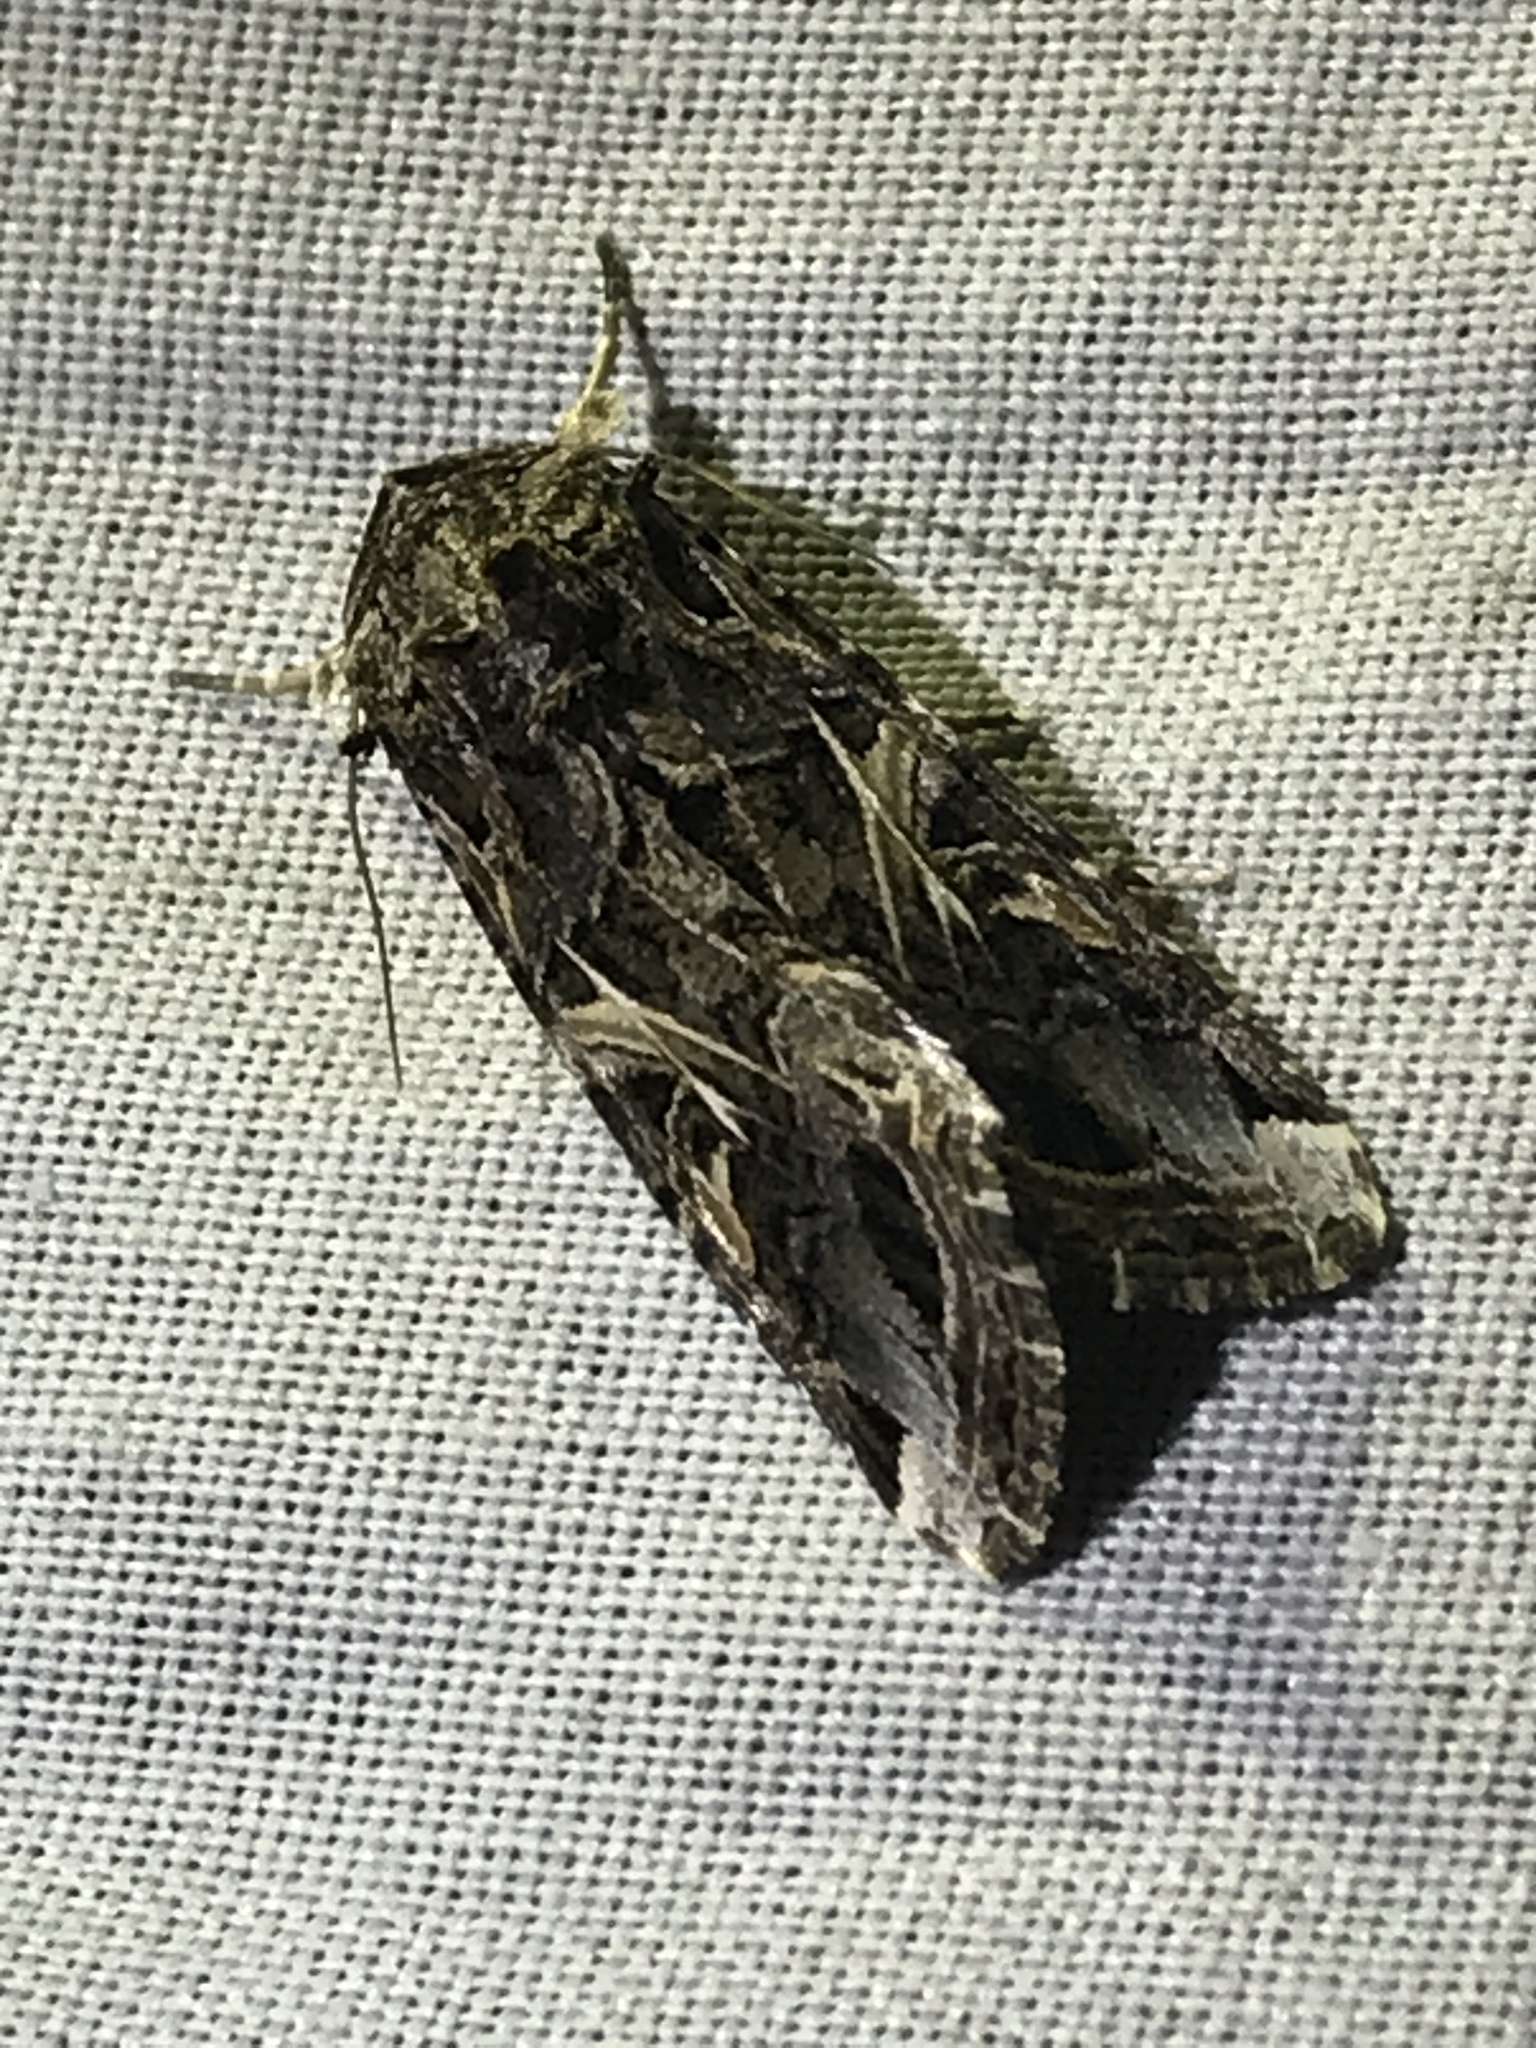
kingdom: Animalia
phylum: Arthropoda
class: Insecta
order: Lepidoptera
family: Noctuidae
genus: Spodoptera
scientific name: Spodoptera ornithogalli
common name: Yellow-striped armyworm
